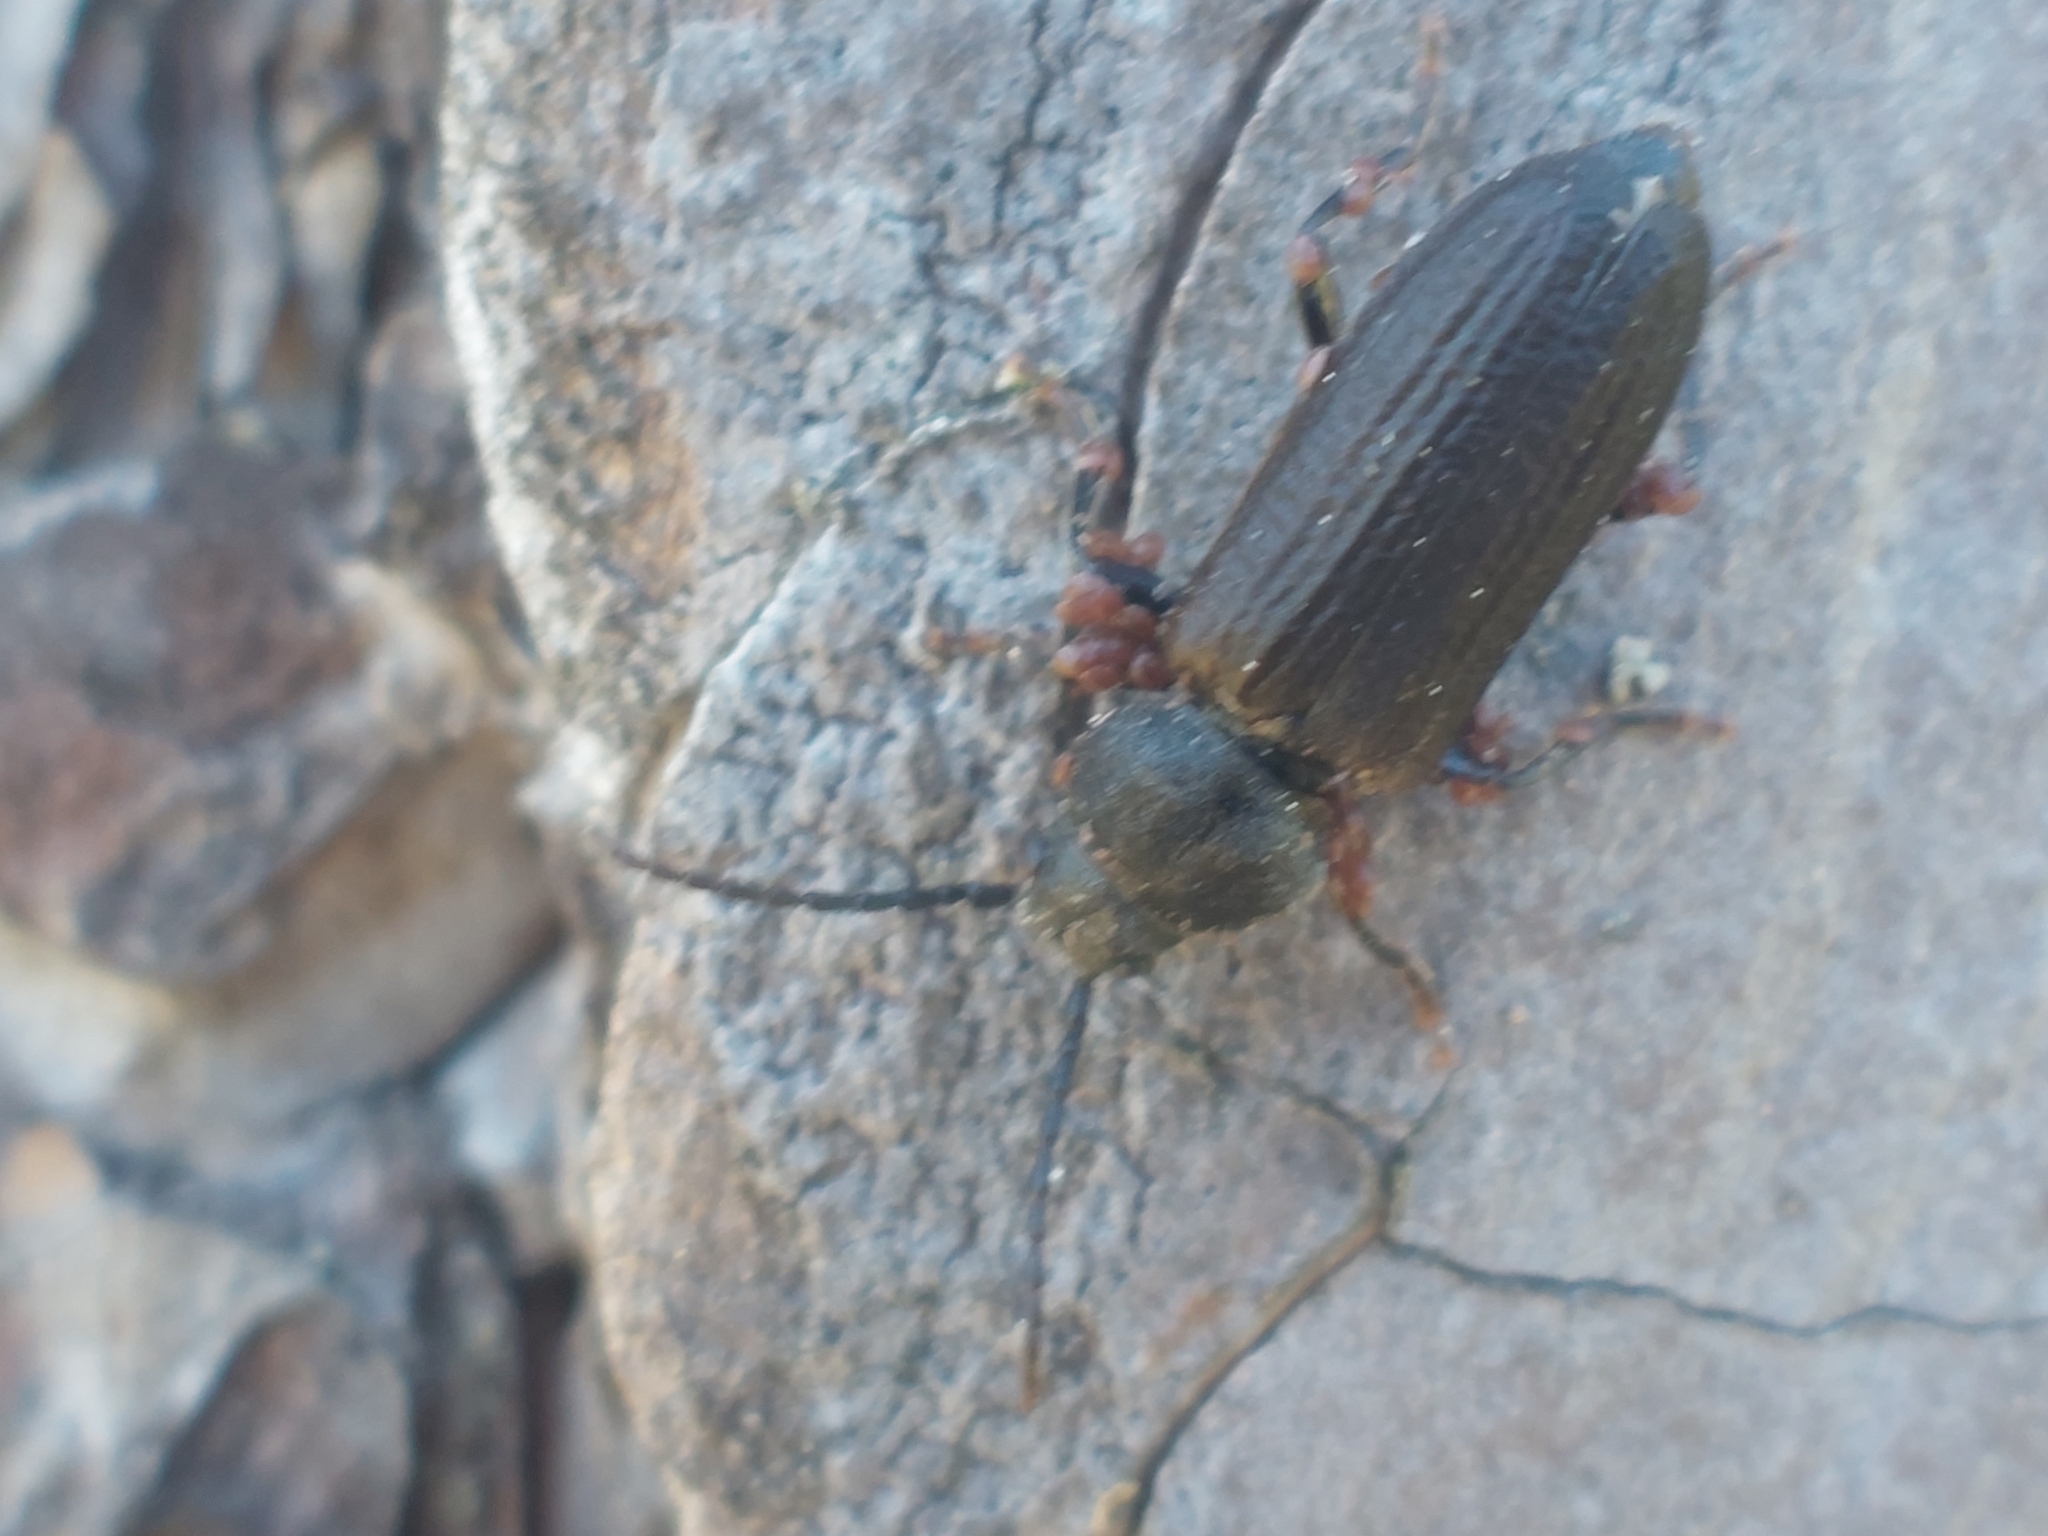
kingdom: Animalia
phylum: Arthropoda
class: Insecta
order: Coleoptera
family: Cerambycidae
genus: Asemum
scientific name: Asemum striatum
